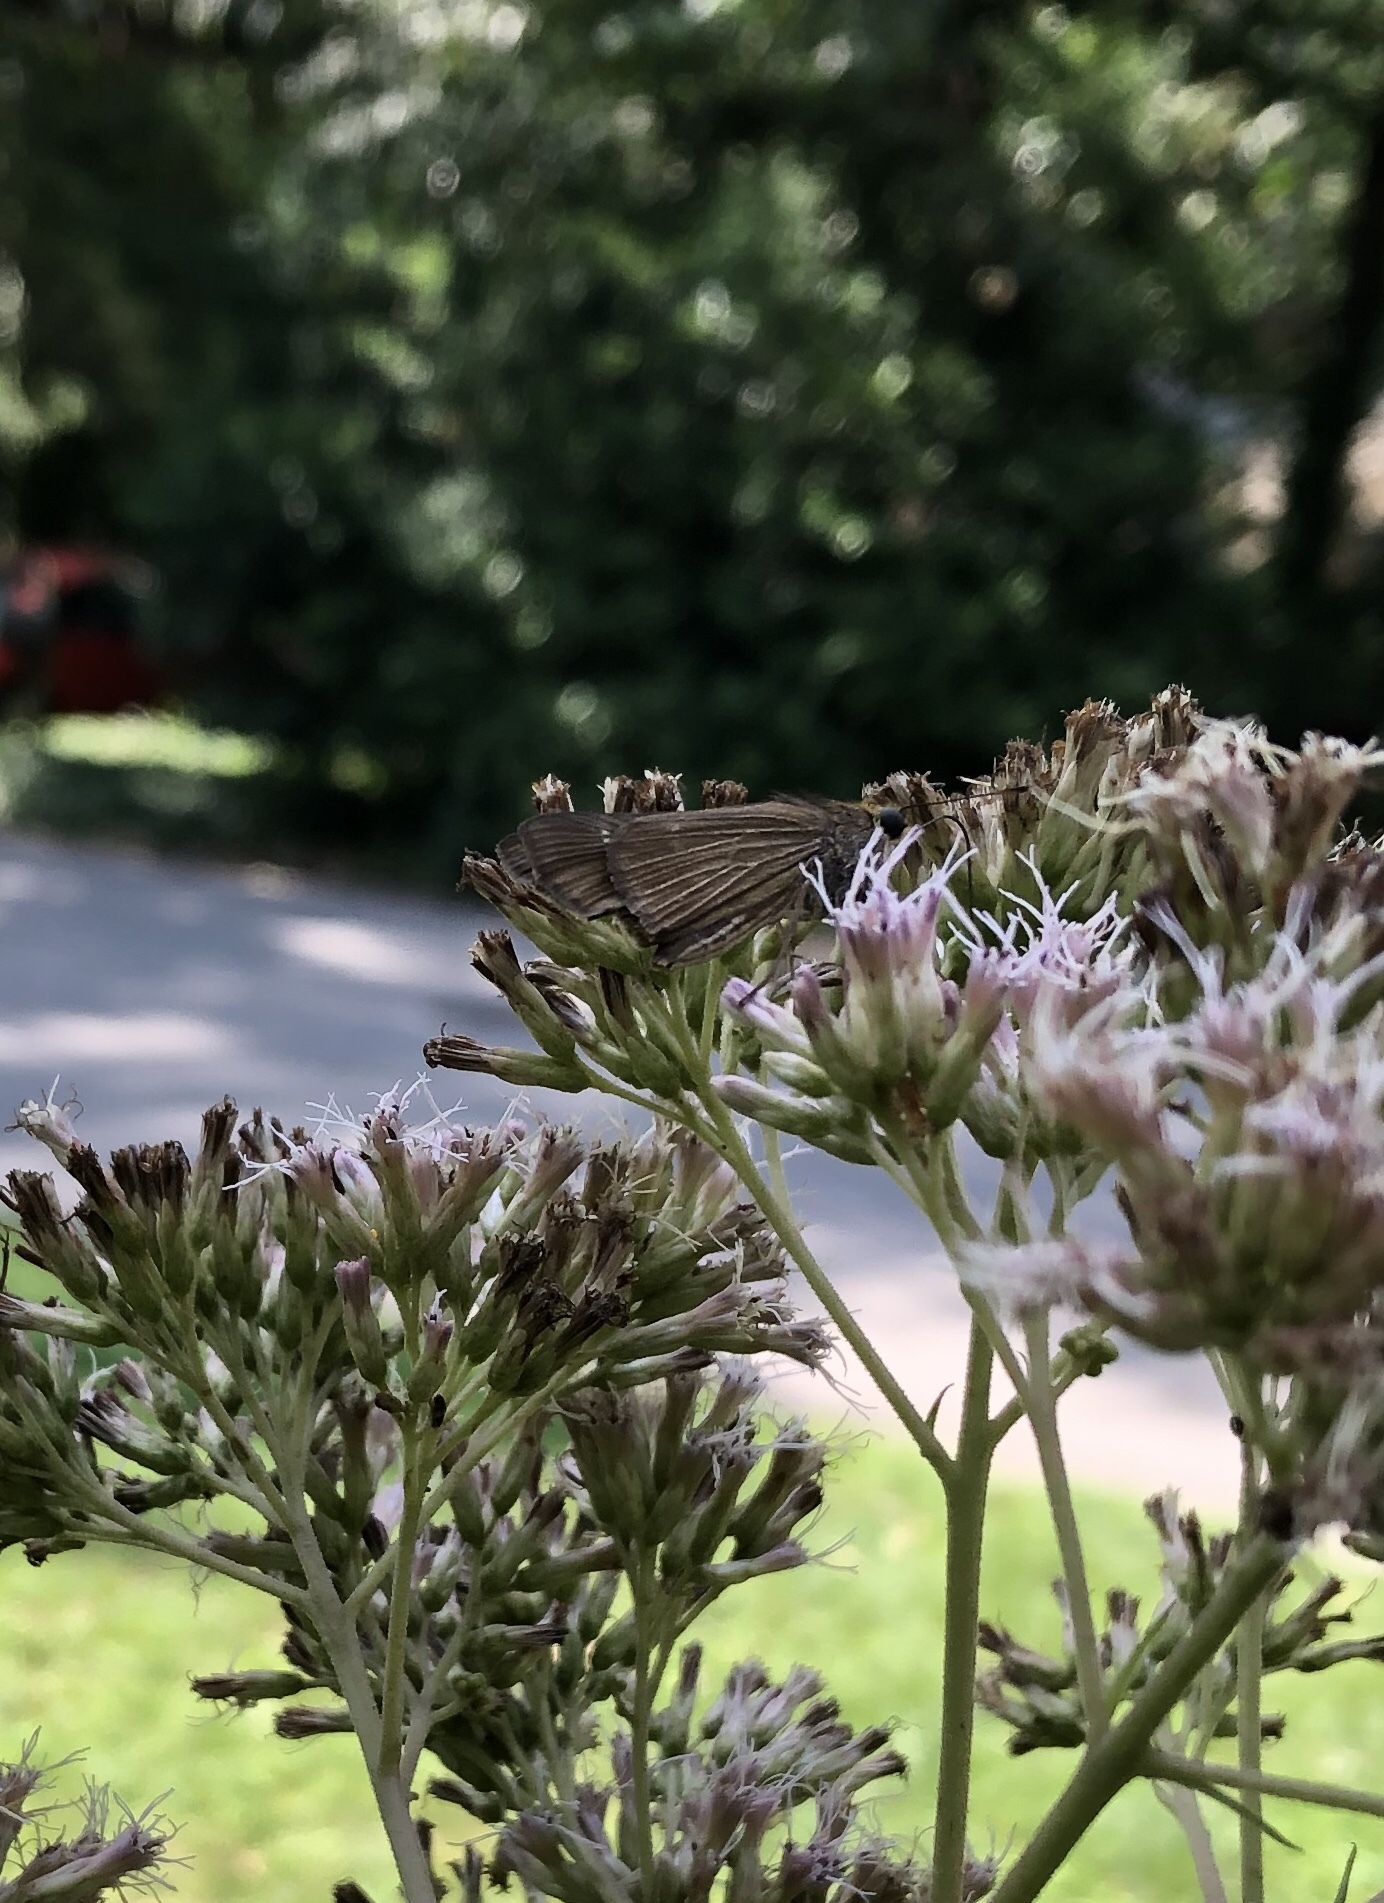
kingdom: Animalia
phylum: Arthropoda
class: Insecta
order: Lepidoptera
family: Hesperiidae
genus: Panoquina
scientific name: Panoquina ocola
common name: Ocola skipper
